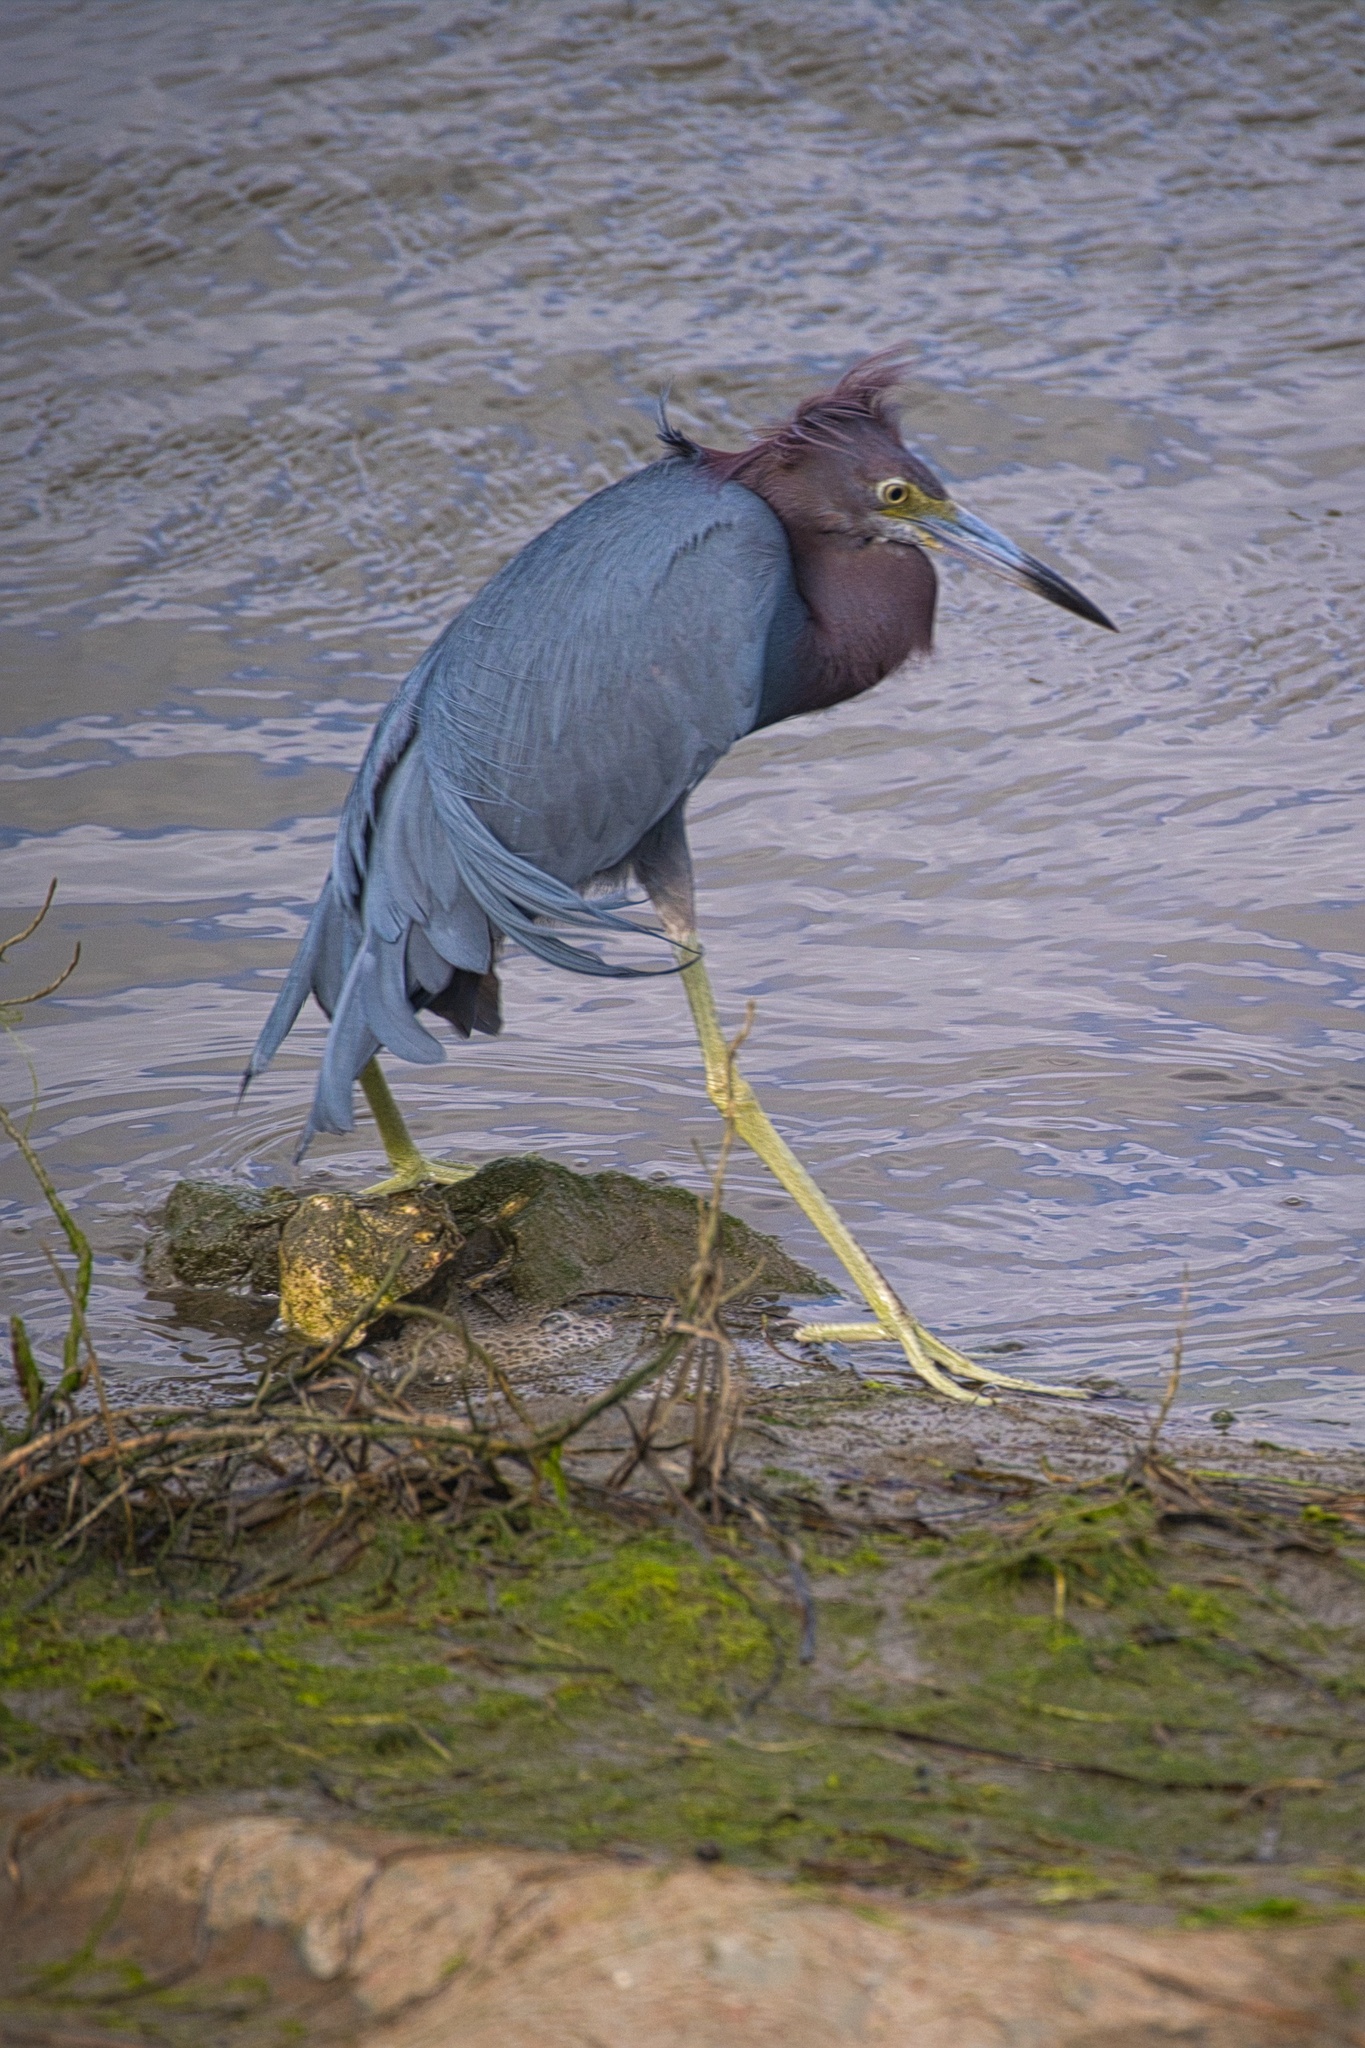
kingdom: Animalia
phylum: Chordata
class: Aves
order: Pelecaniformes
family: Ardeidae
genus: Egretta
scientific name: Egretta caerulea
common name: Little blue heron
